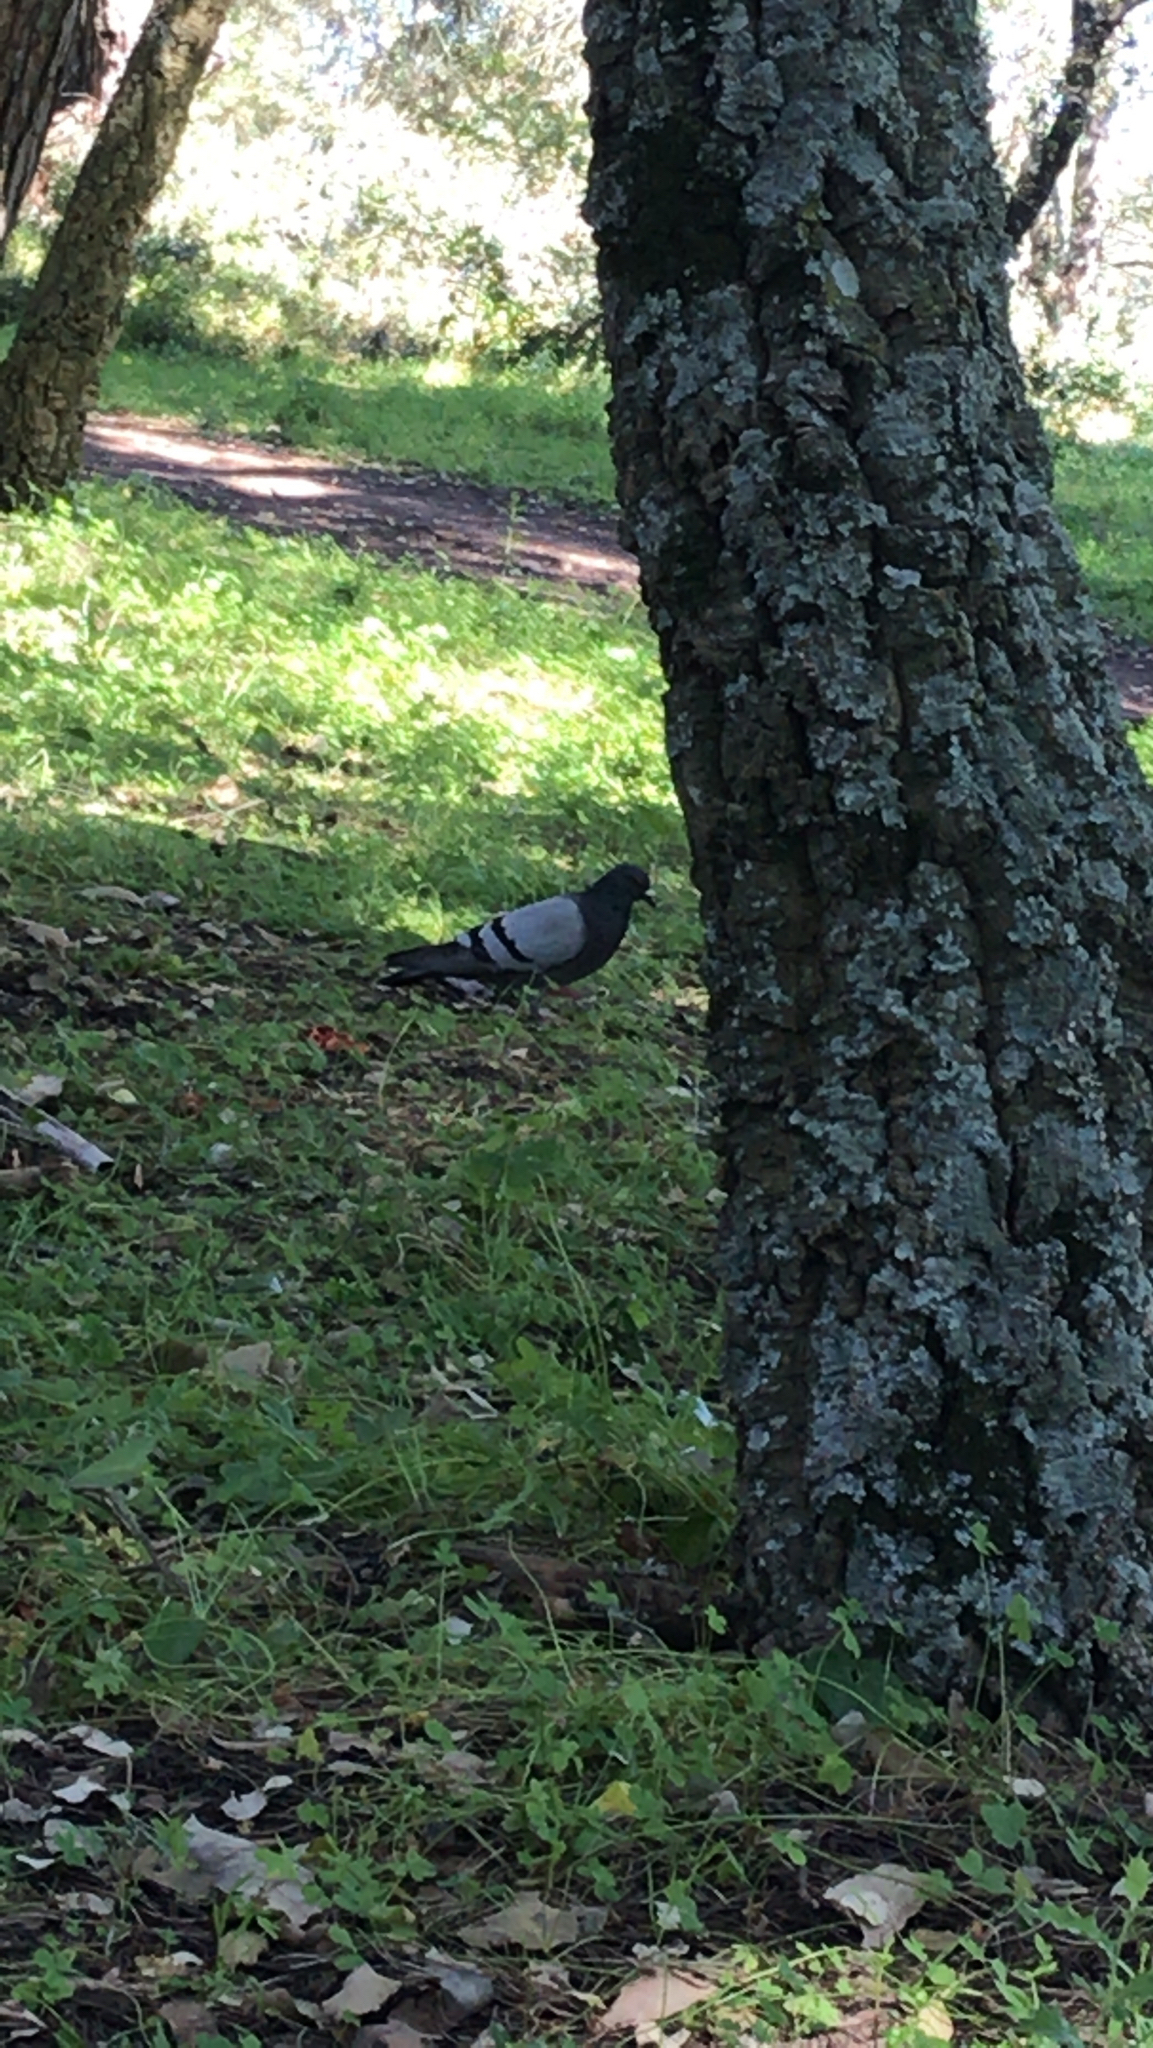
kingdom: Animalia
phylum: Chordata
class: Aves
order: Columbiformes
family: Columbidae
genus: Columba
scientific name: Columba livia
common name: Rock pigeon
